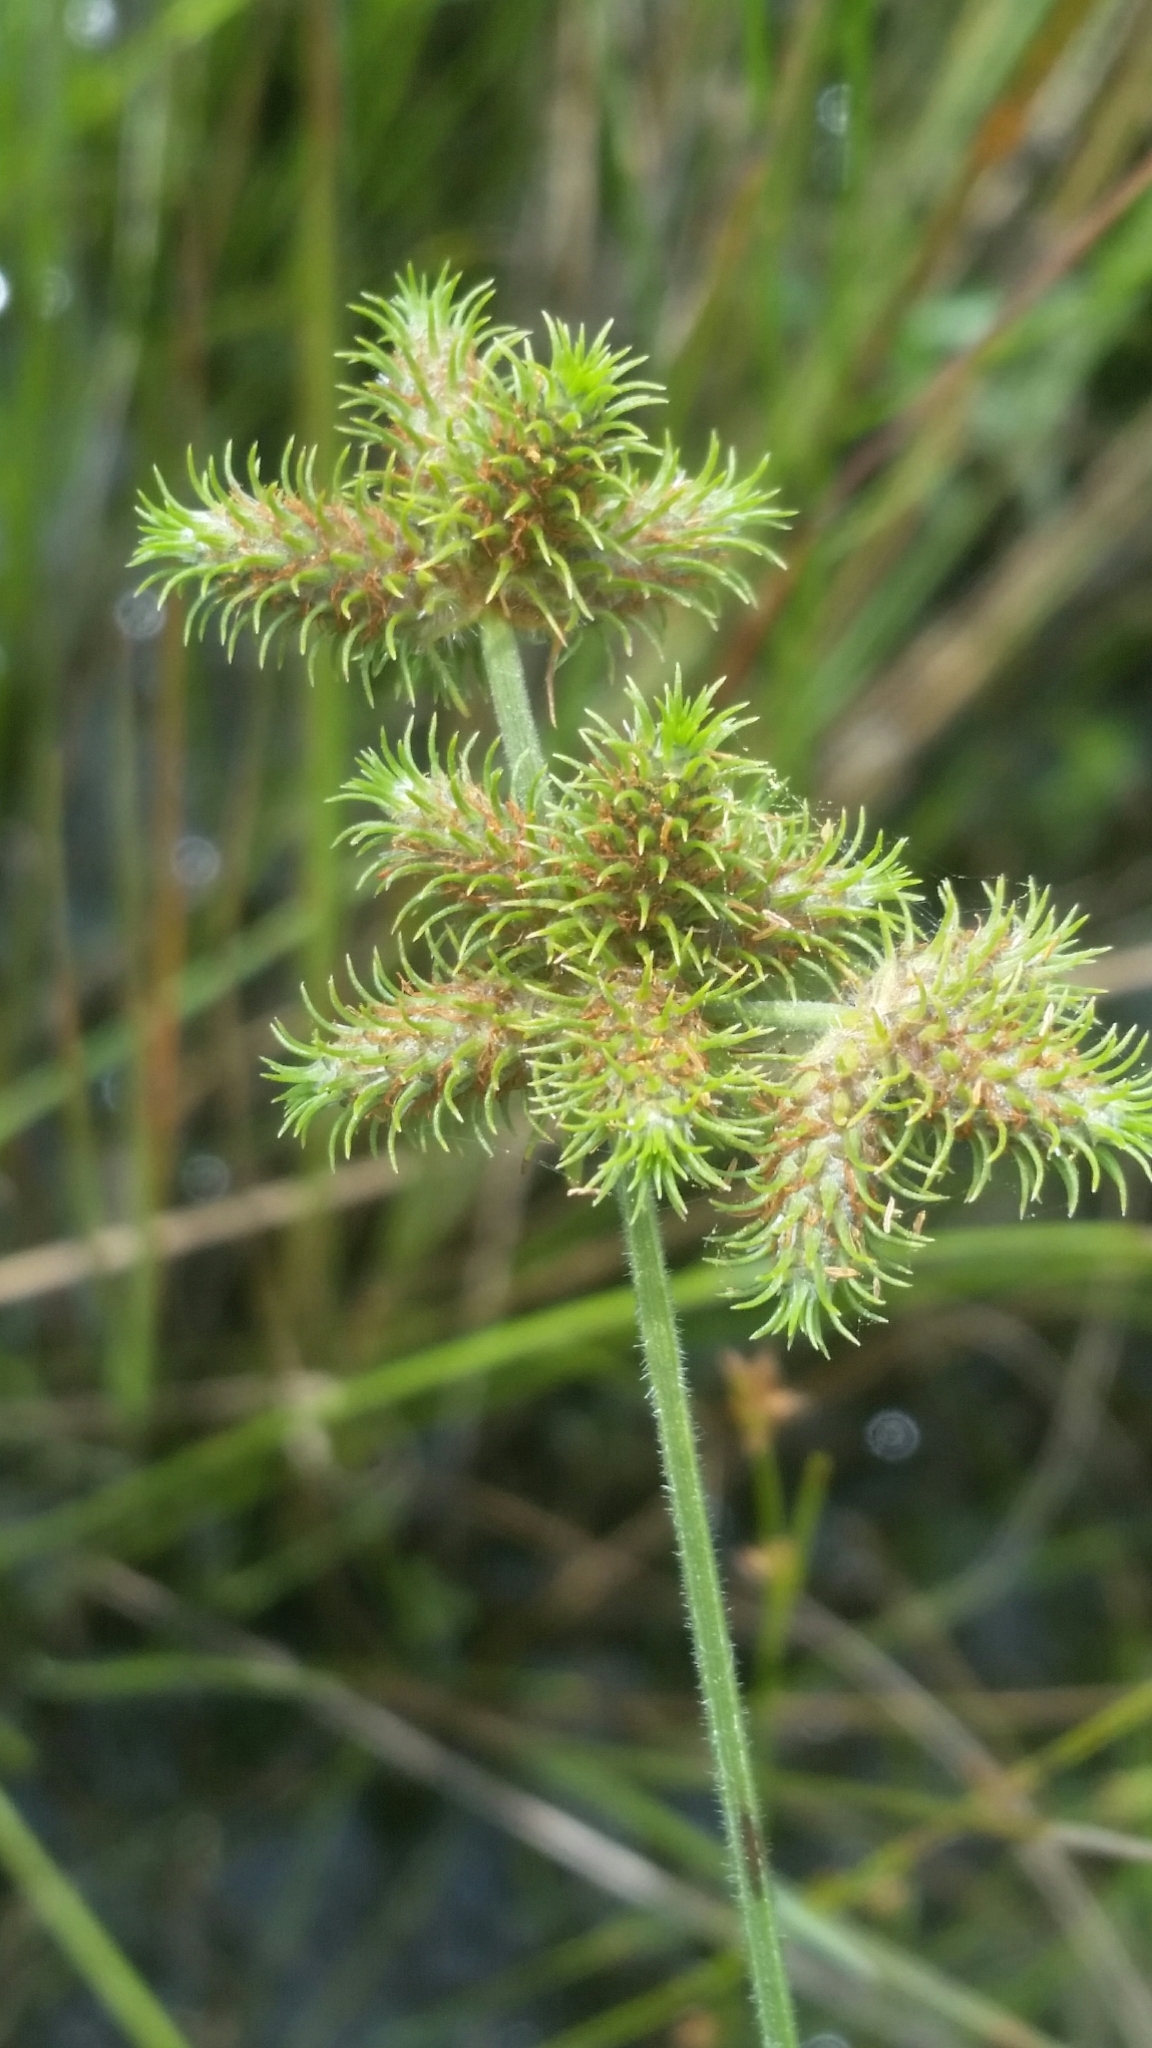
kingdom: Plantae
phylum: Tracheophyta
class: Liliopsida
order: Poales
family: Cyperaceae
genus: Fuirena
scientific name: Fuirena breviseta
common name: Saltmarsh umbrella sedge
